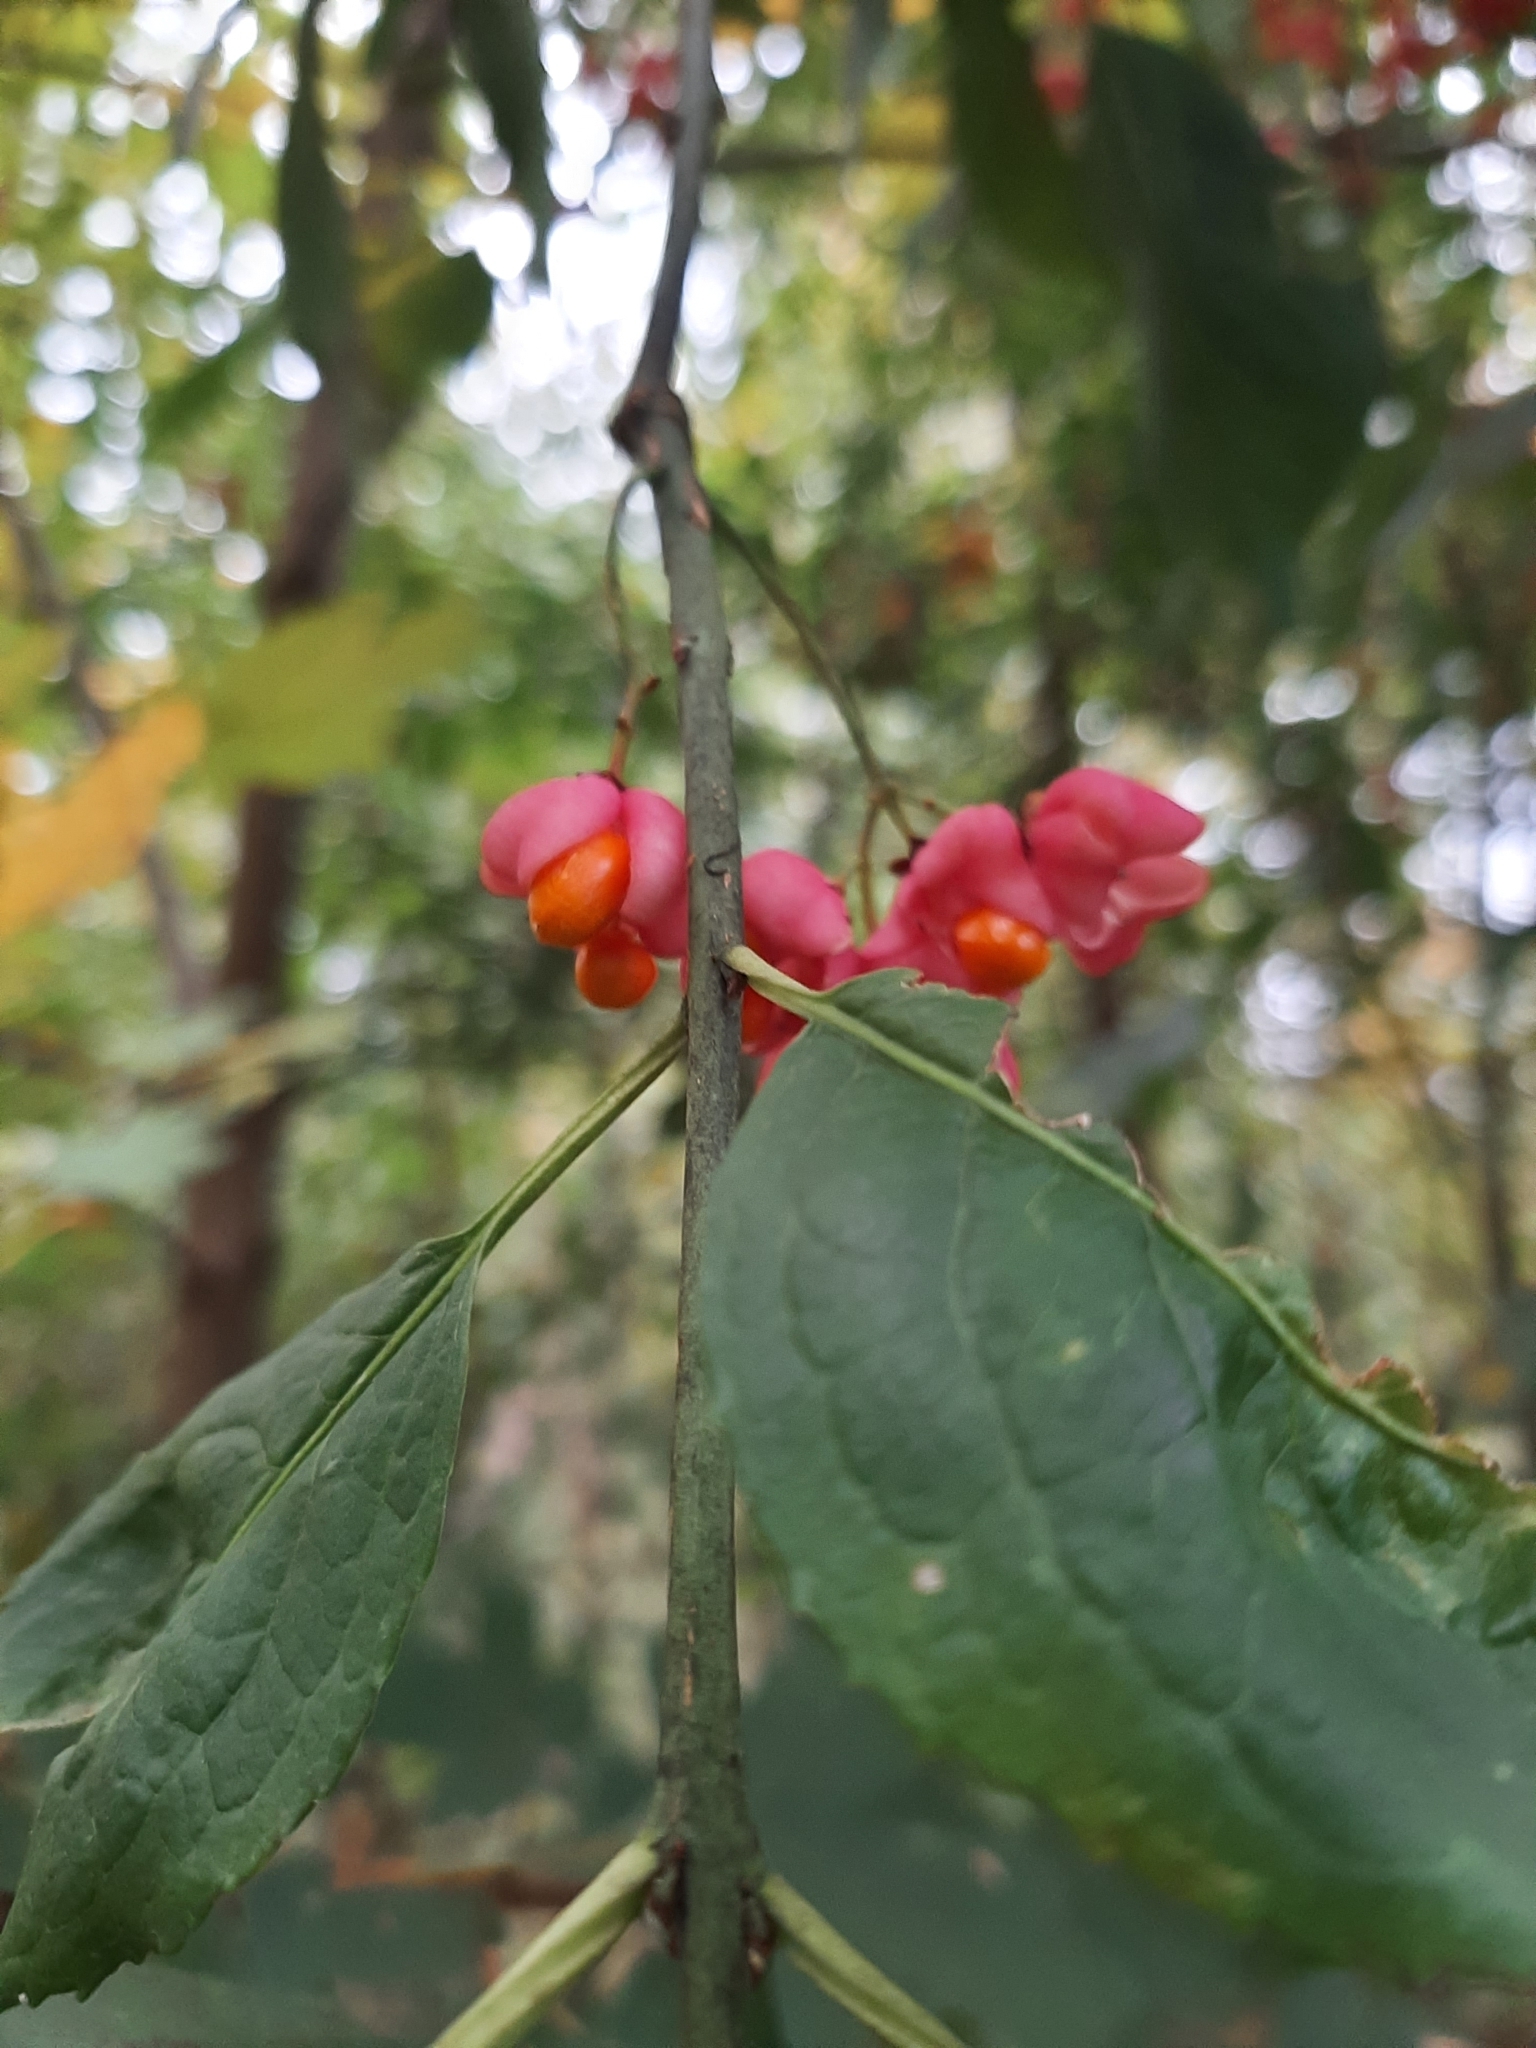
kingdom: Plantae
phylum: Tracheophyta
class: Magnoliopsida
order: Celastrales
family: Celastraceae
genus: Euonymus
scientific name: Euonymus europaeus
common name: Spindle
